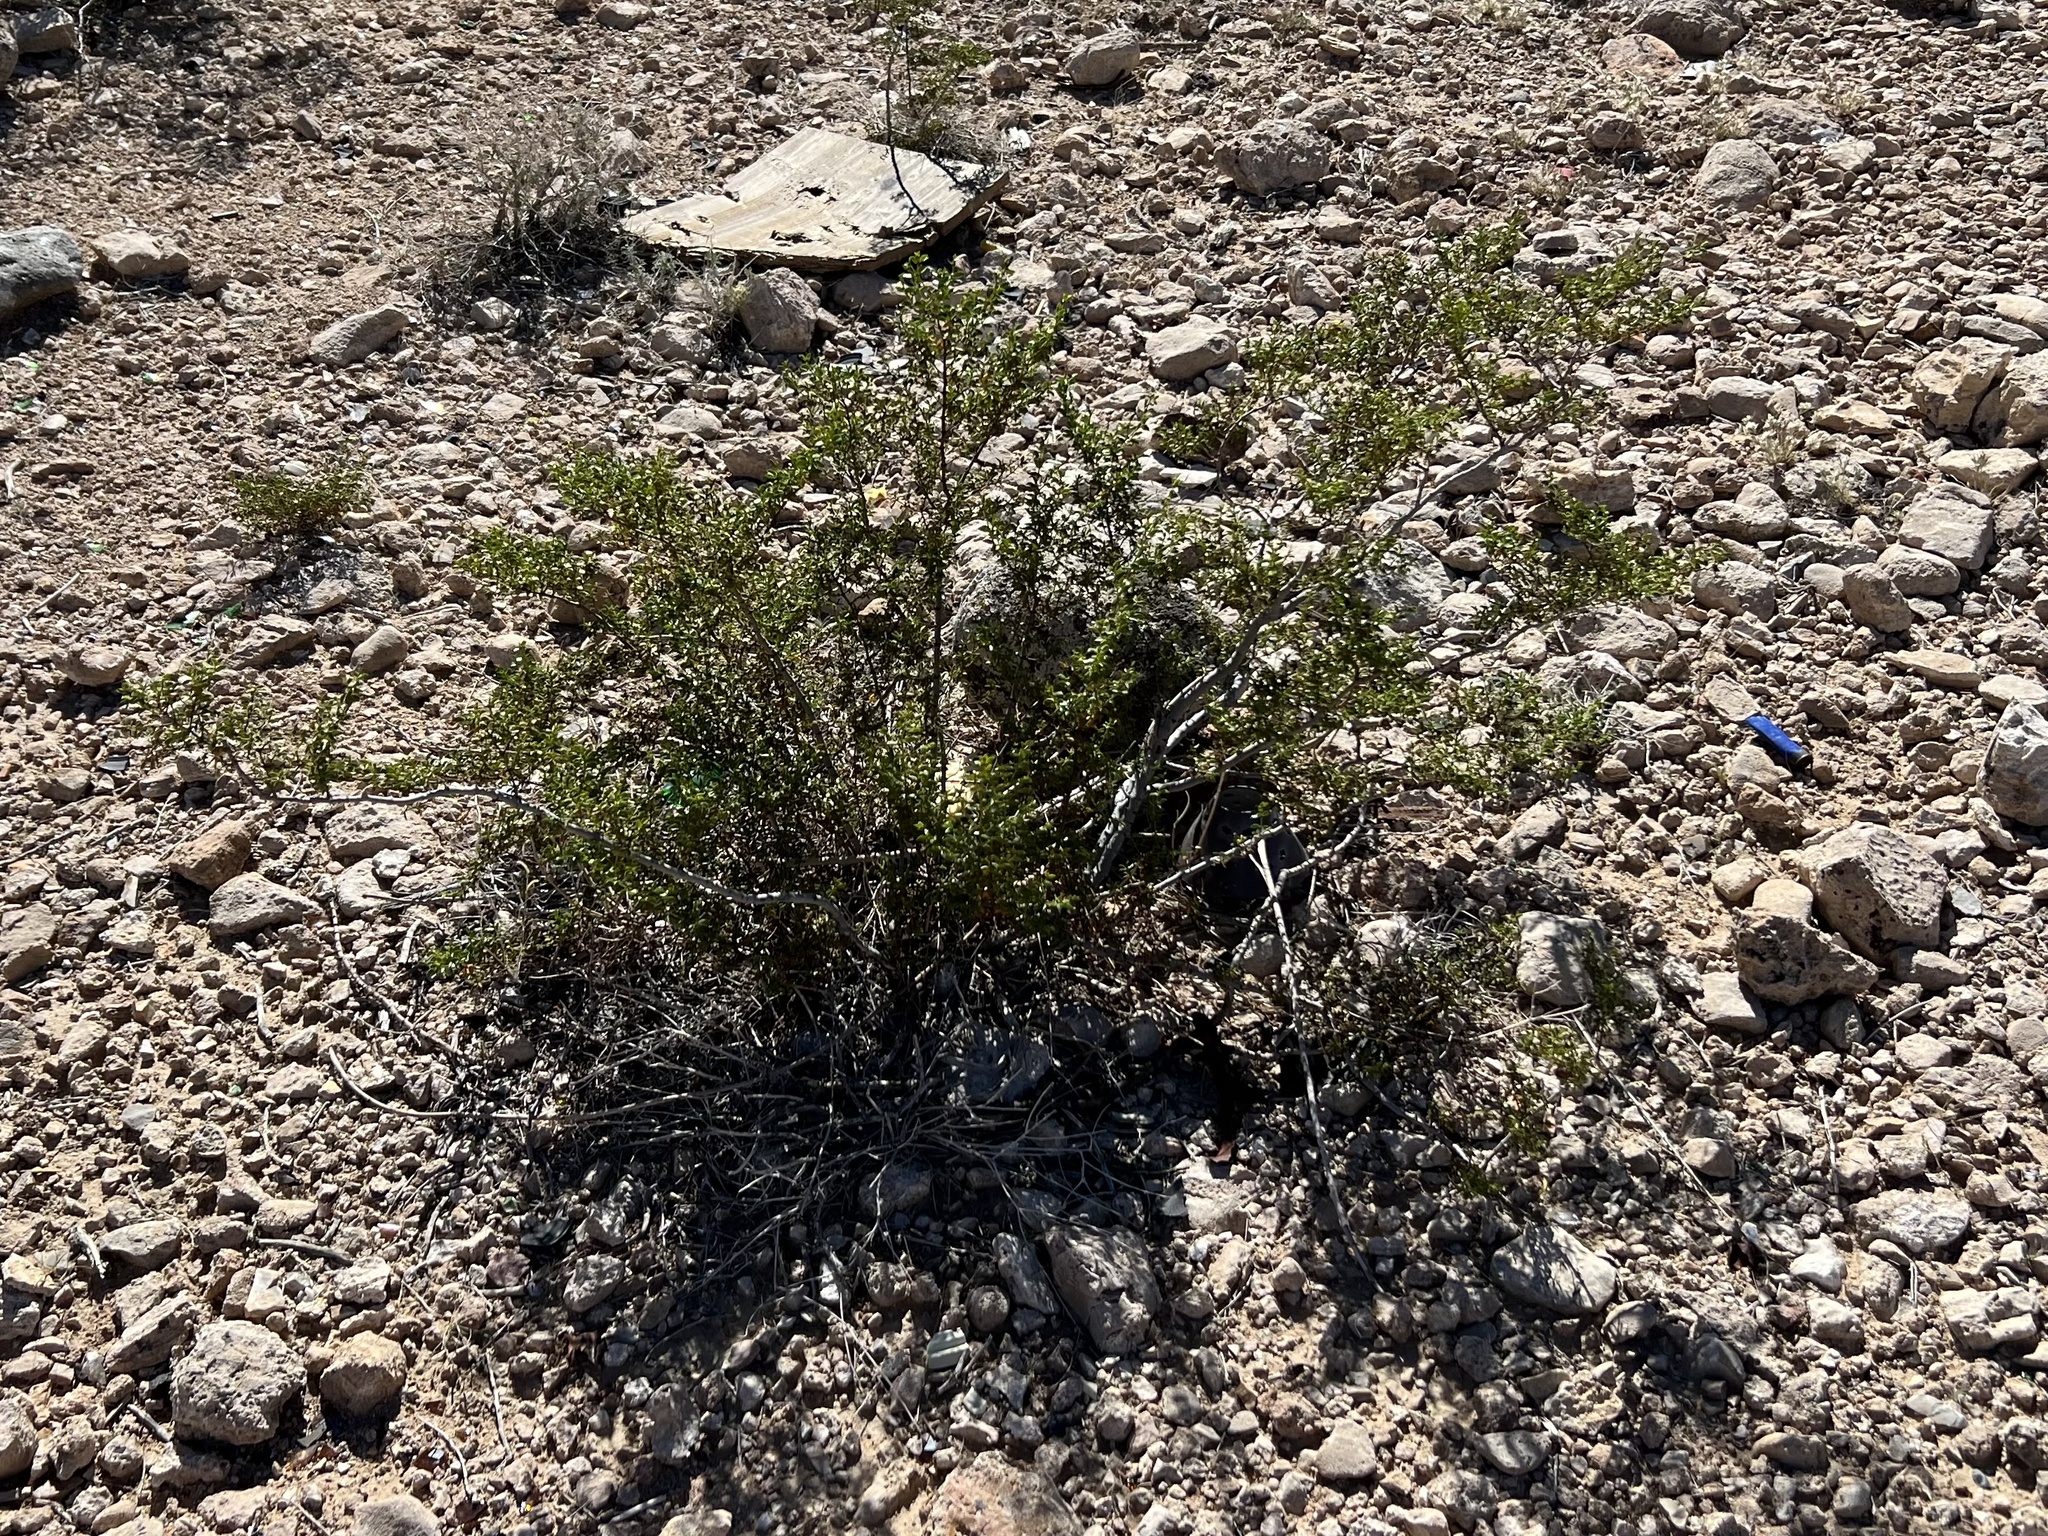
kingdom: Plantae
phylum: Tracheophyta
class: Magnoliopsida
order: Zygophyllales
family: Zygophyllaceae
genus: Larrea
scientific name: Larrea tridentata
